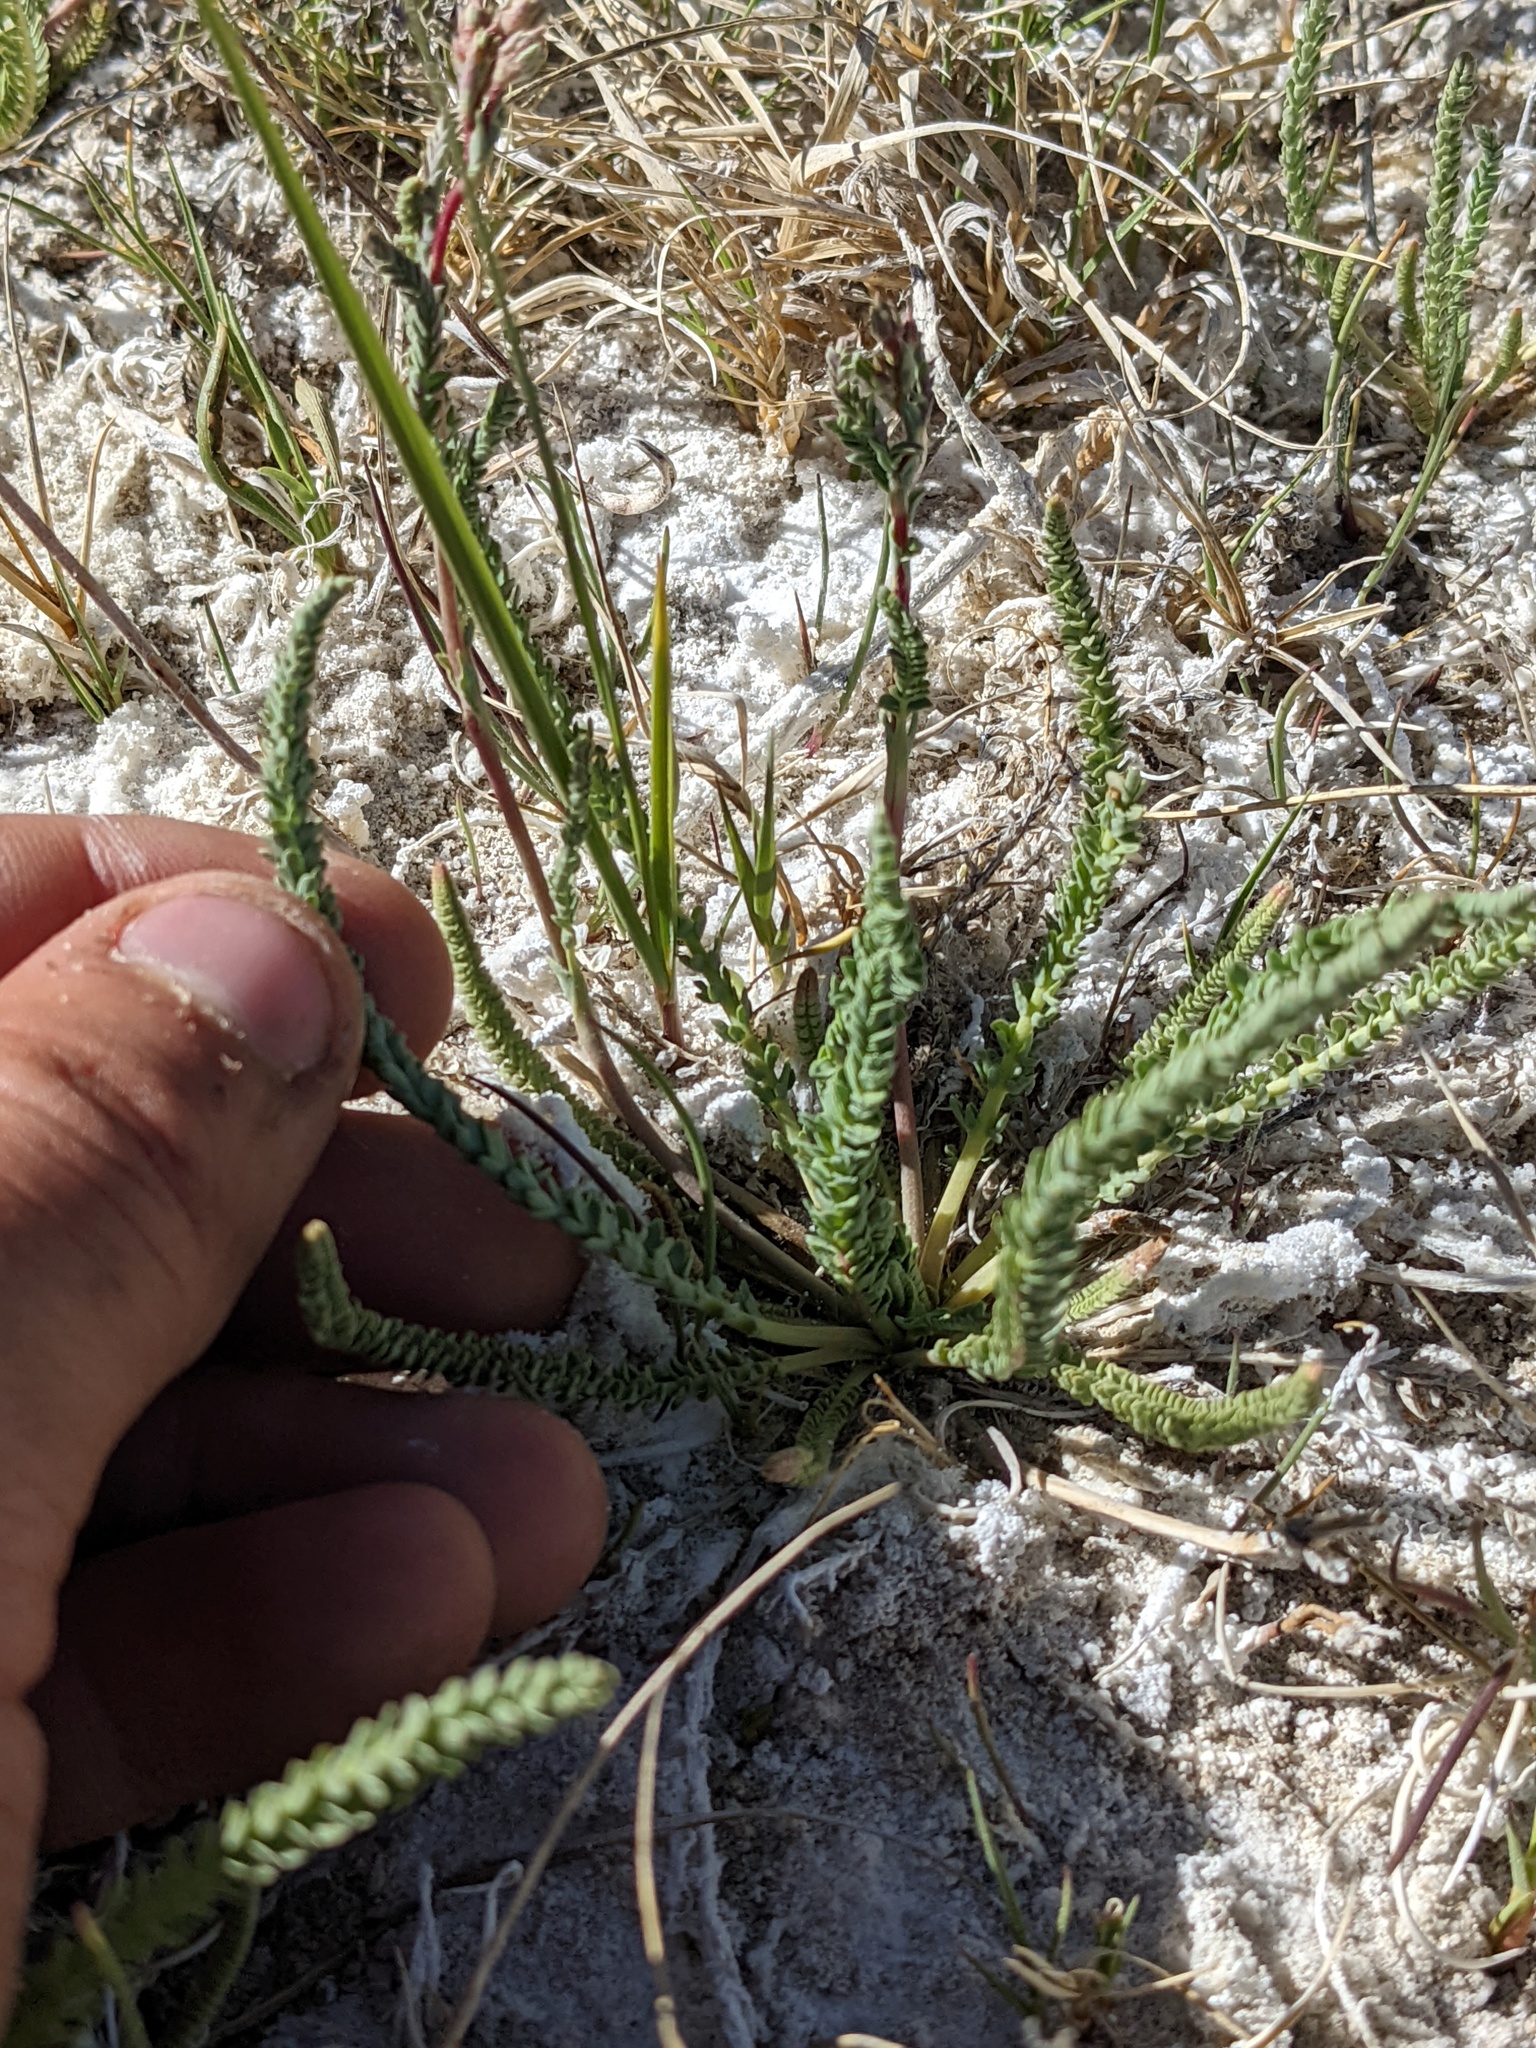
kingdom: Plantae
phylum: Tracheophyta
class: Magnoliopsida
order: Rosales
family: Rosaceae
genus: Potentilla
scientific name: Potentilla kingii
